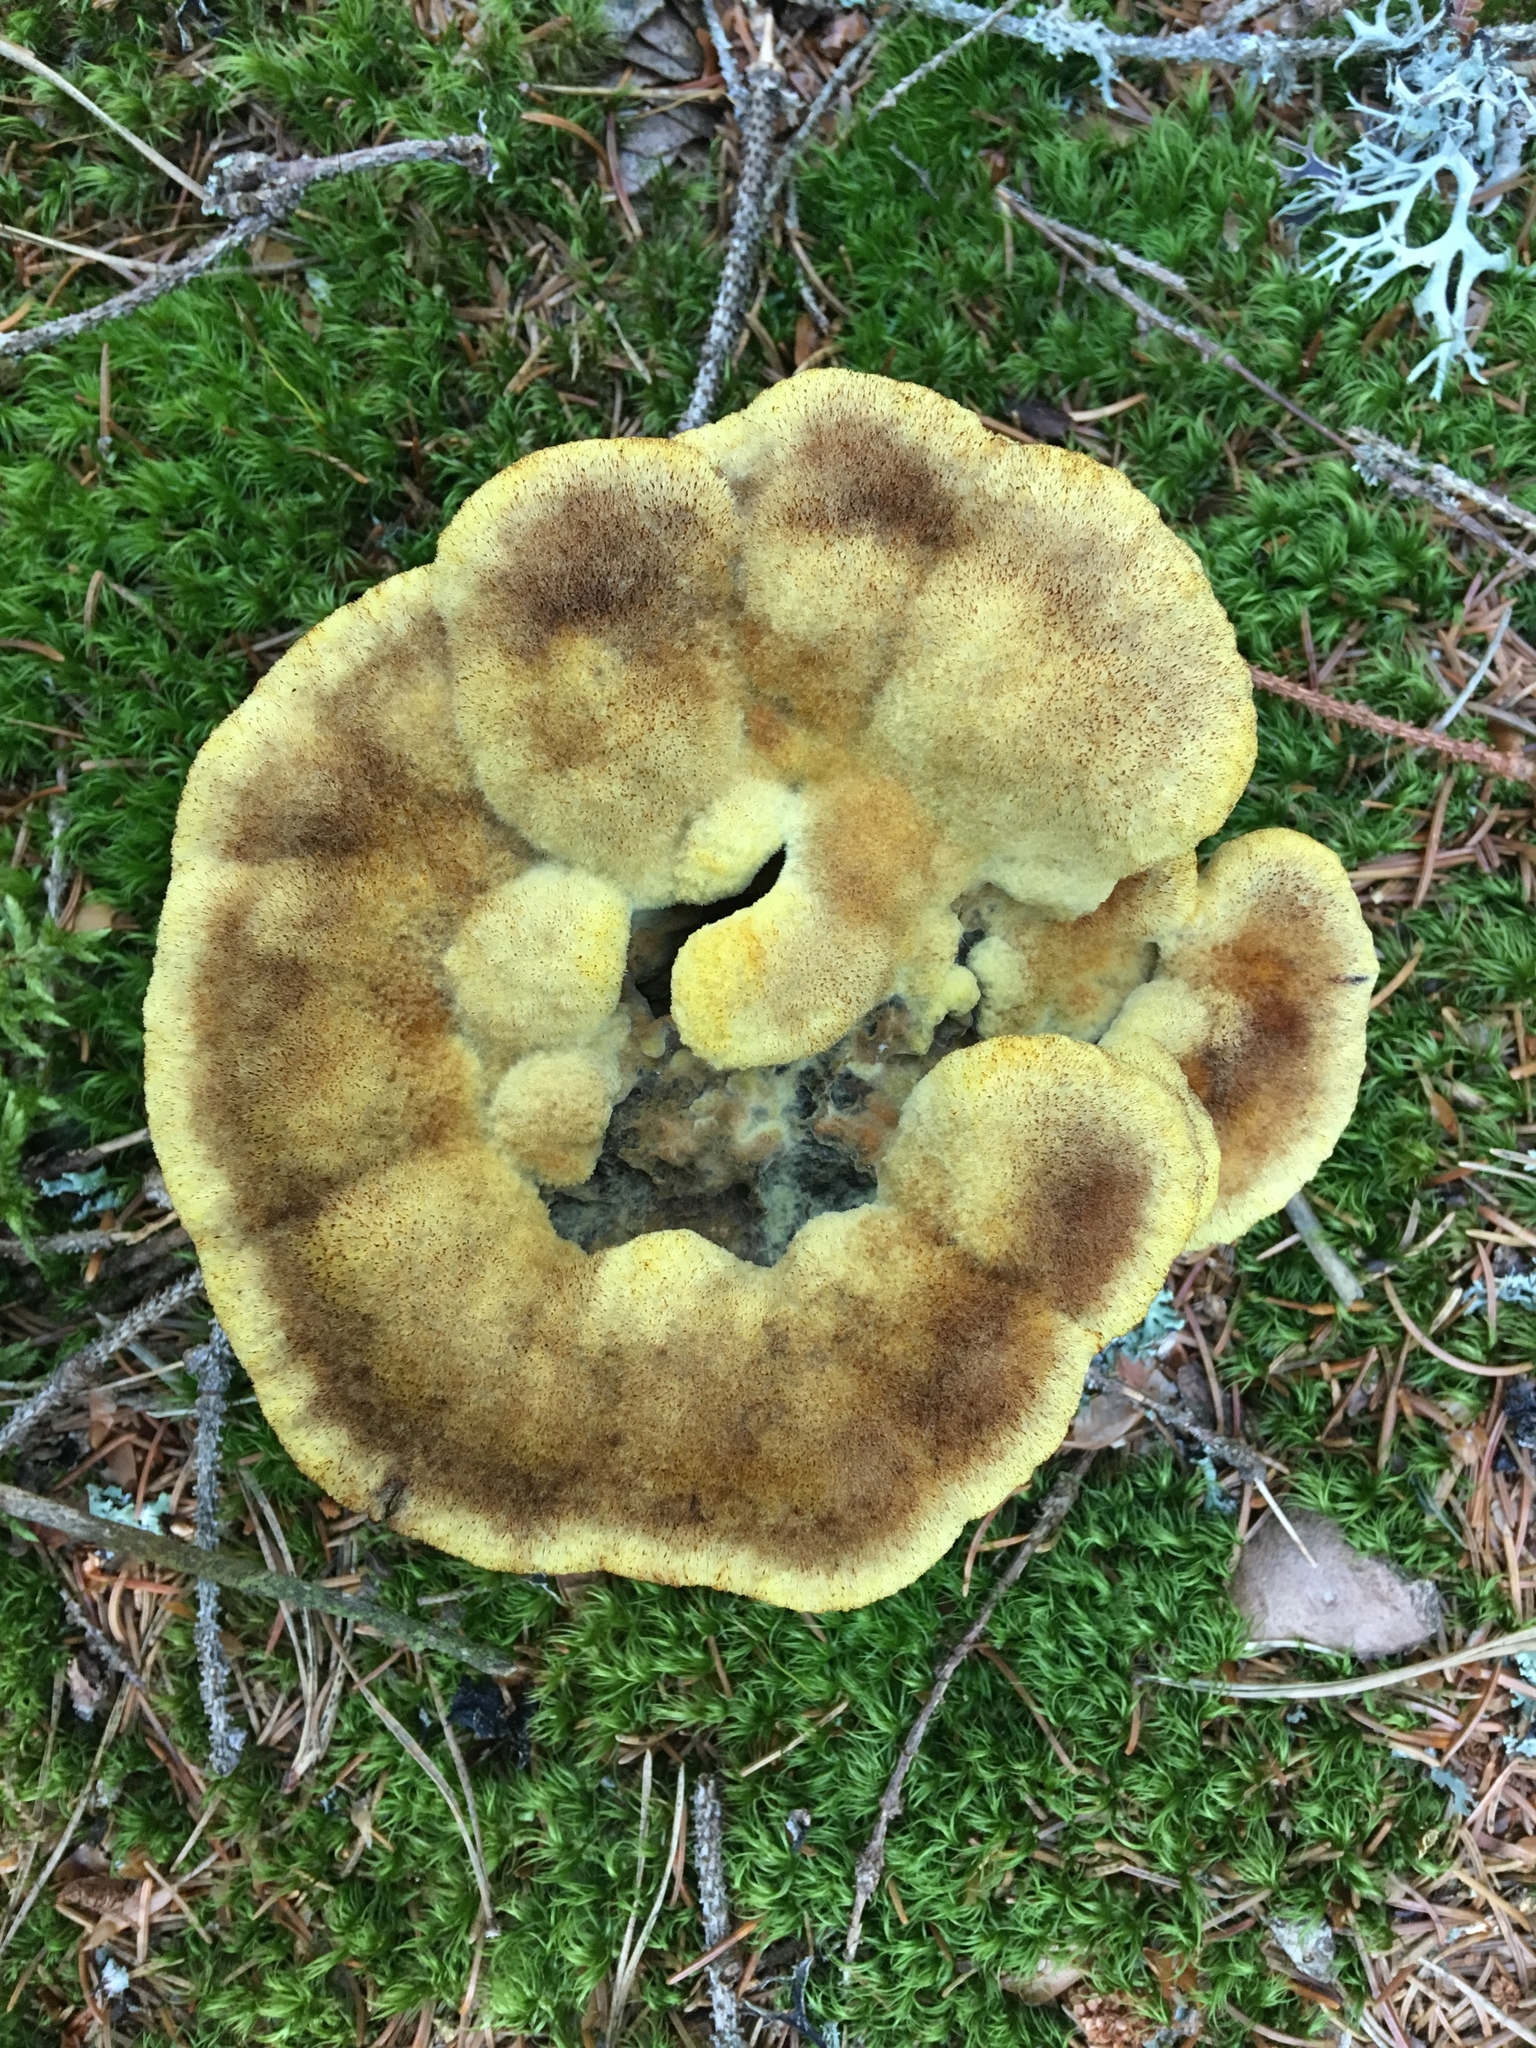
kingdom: Fungi
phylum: Basidiomycota
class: Agaricomycetes
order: Polyporales
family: Laetiporaceae
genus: Phaeolus
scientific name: Phaeolus schweinitzii
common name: Dyer's mazegill
